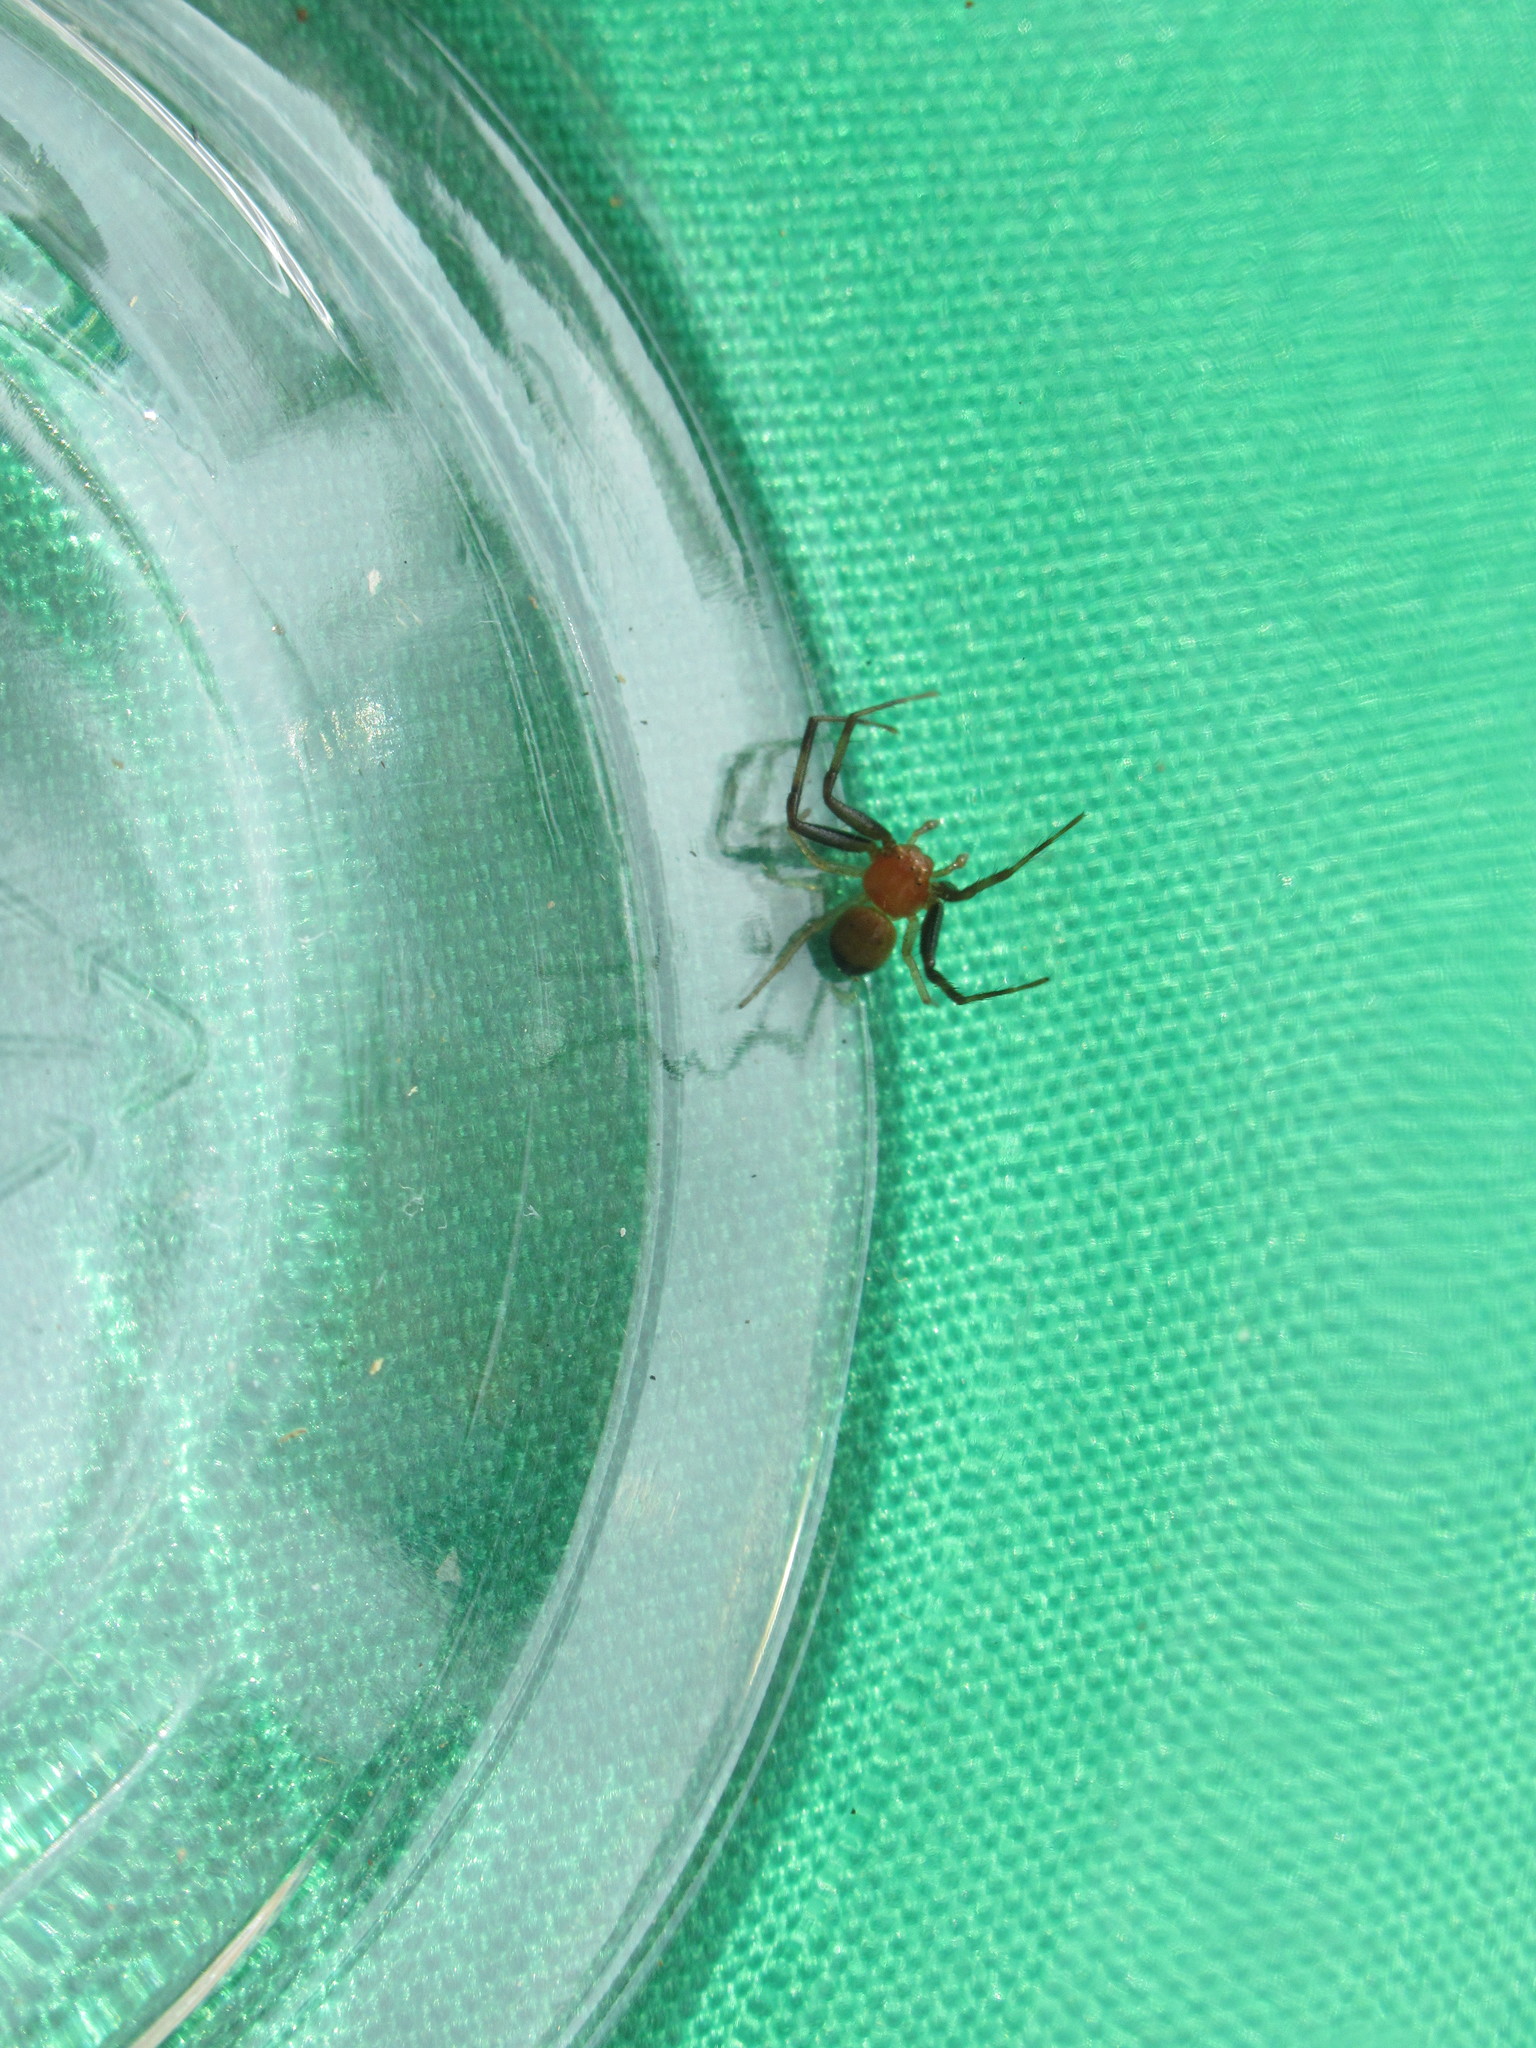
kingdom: Animalia
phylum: Arthropoda
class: Arachnida
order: Araneae
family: Thomisidae
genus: Synema
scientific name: Synema parvulum
